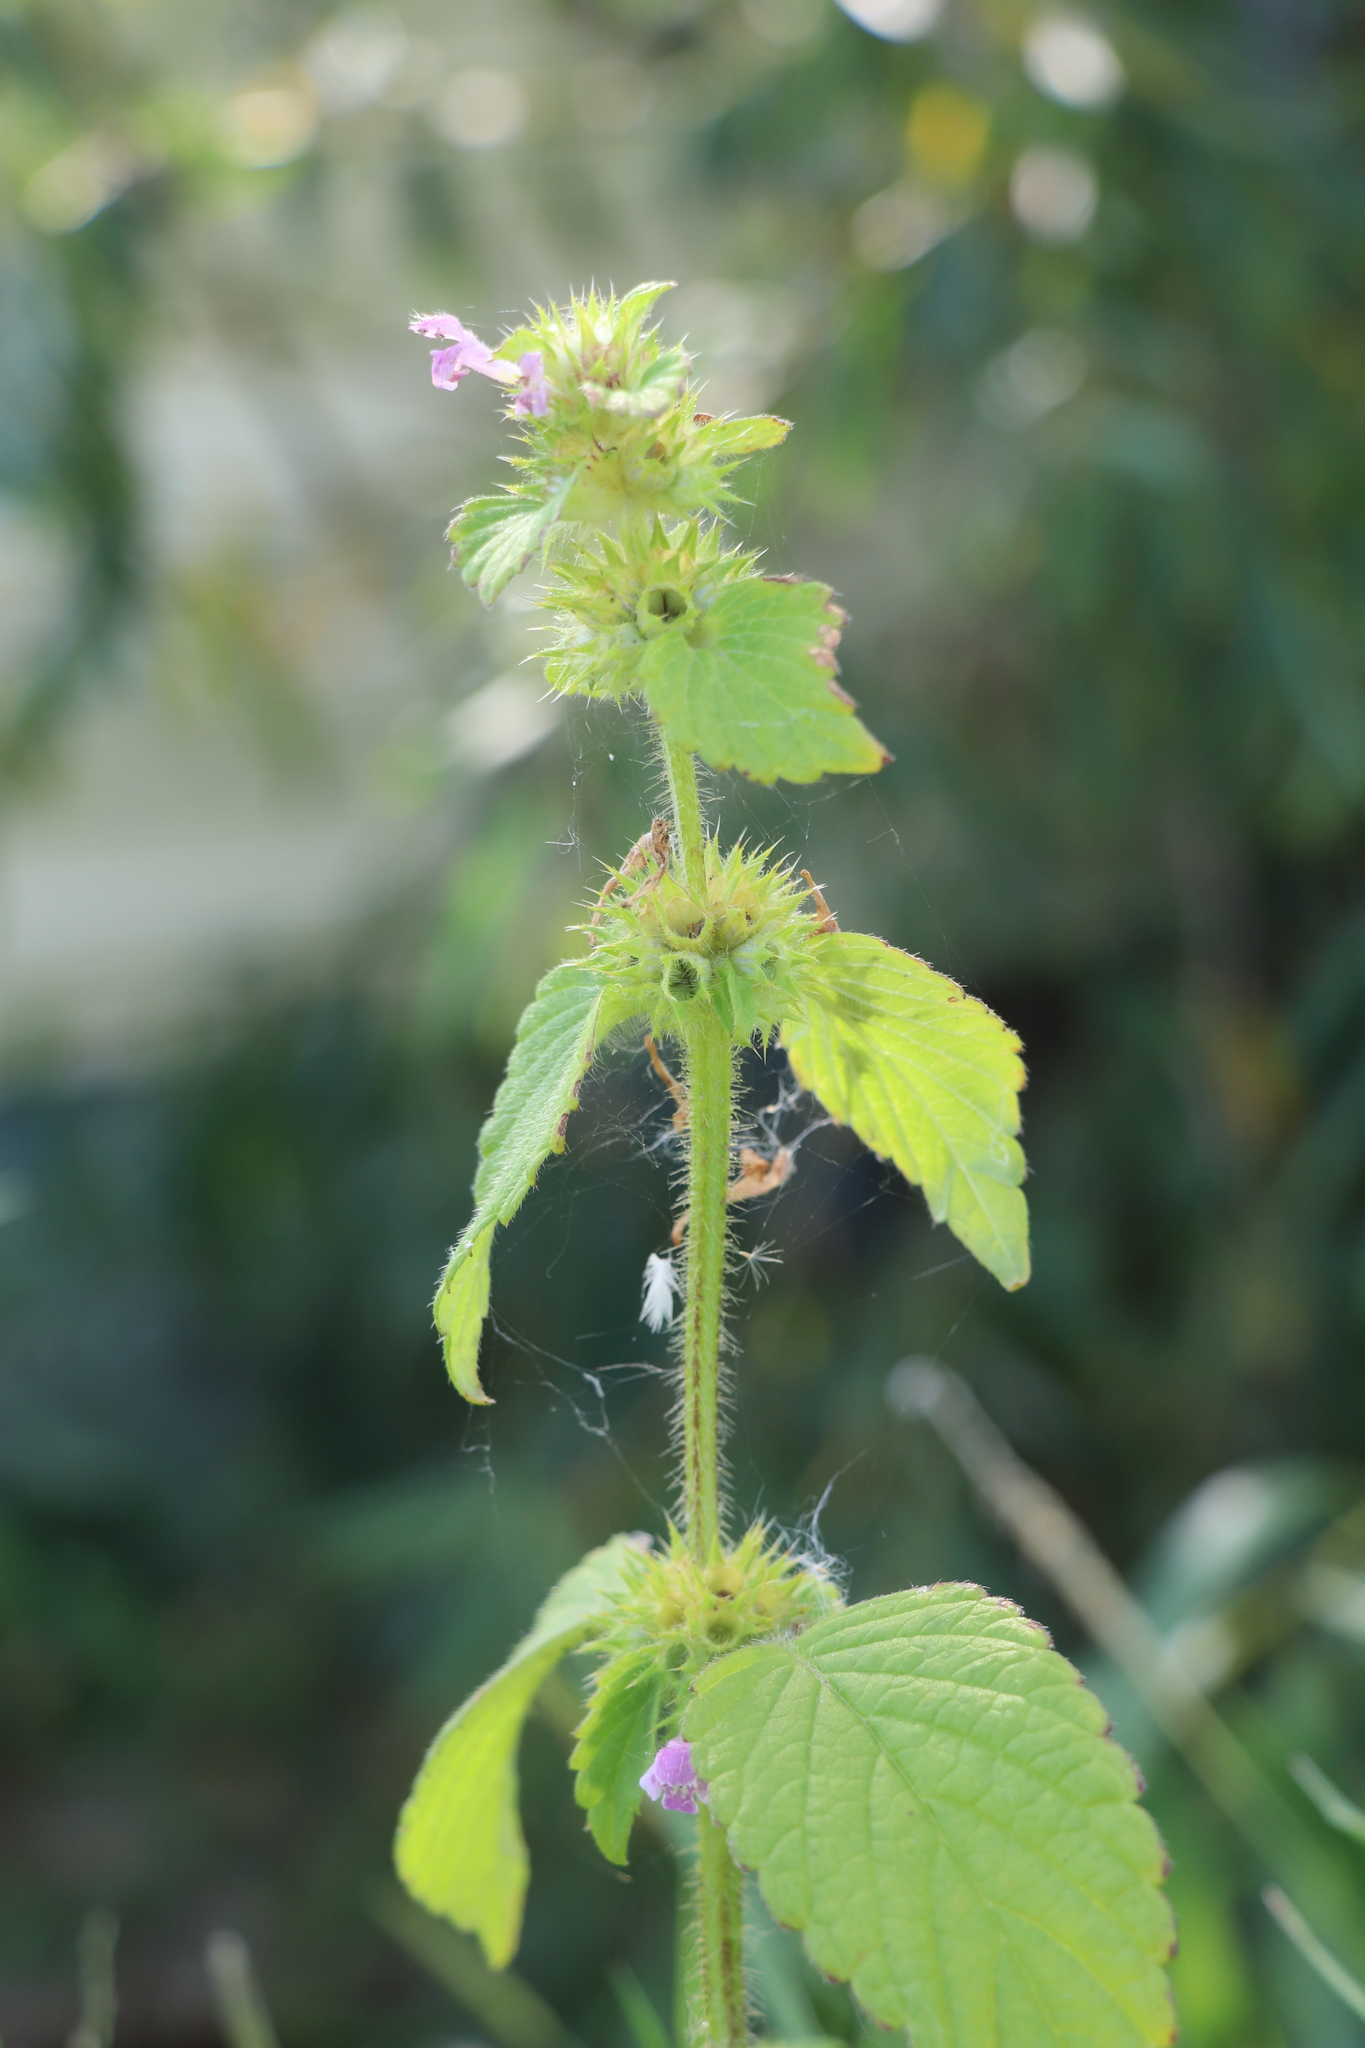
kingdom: Plantae
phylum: Tracheophyta
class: Magnoliopsida
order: Lamiales
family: Lamiaceae
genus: Galeopsis
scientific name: Galeopsis bifida
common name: Bifid hemp-nettle
